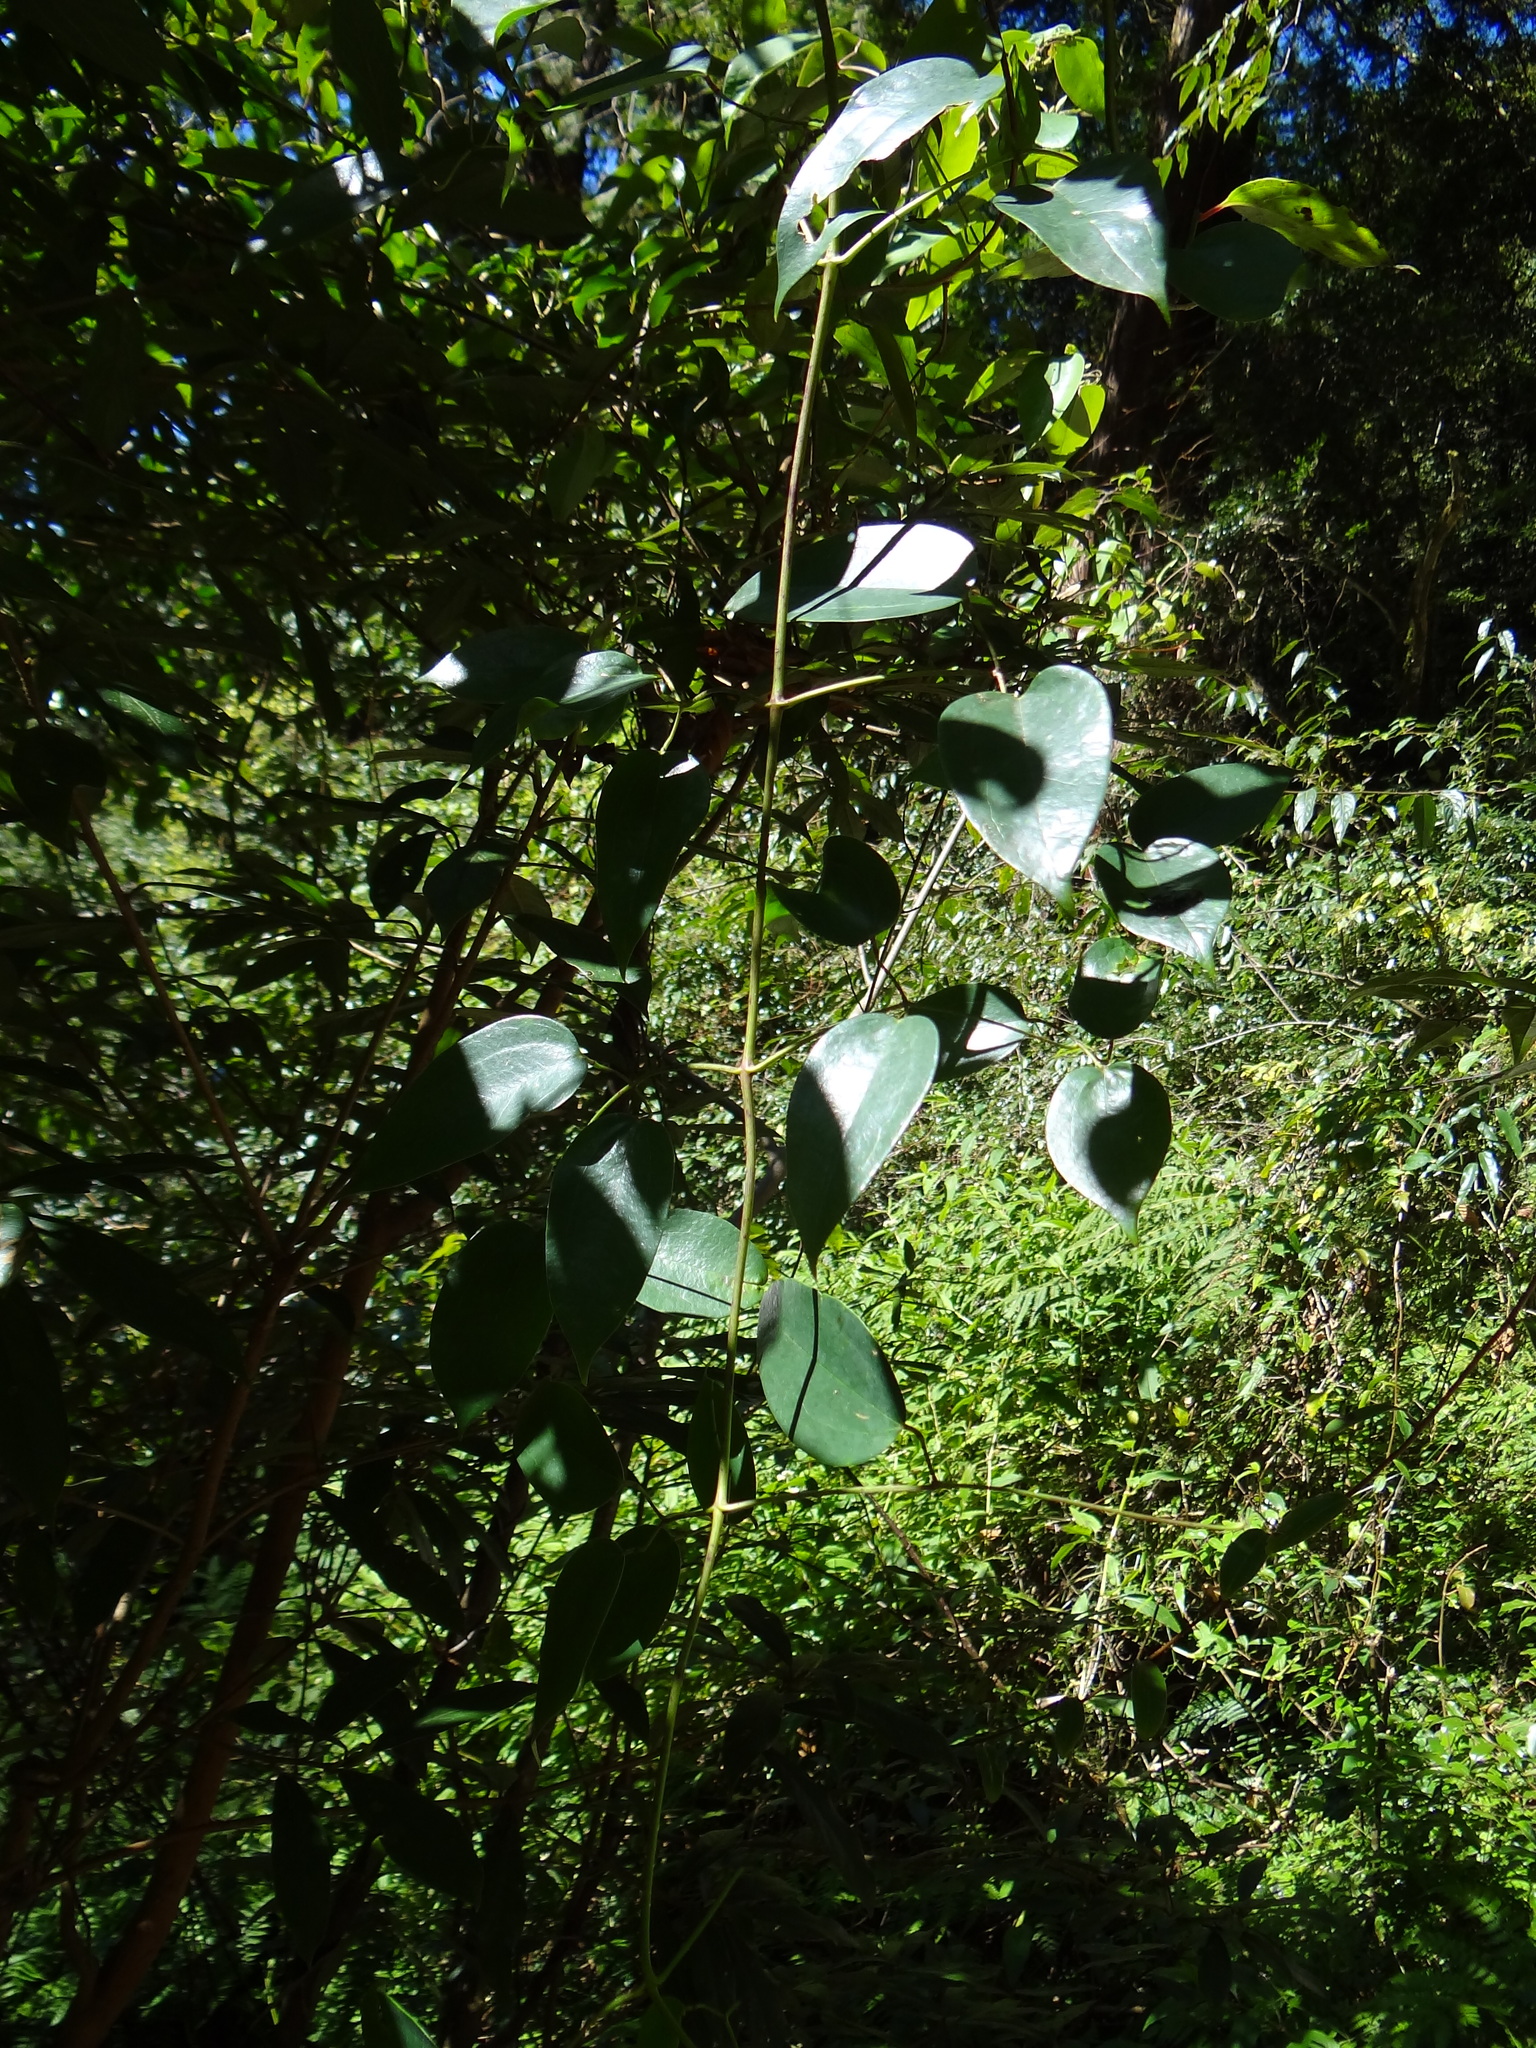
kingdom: Plantae
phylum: Tracheophyta
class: Magnoliopsida
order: Ranunculales
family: Ranunculaceae
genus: Clematis
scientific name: Clematis uncinata
